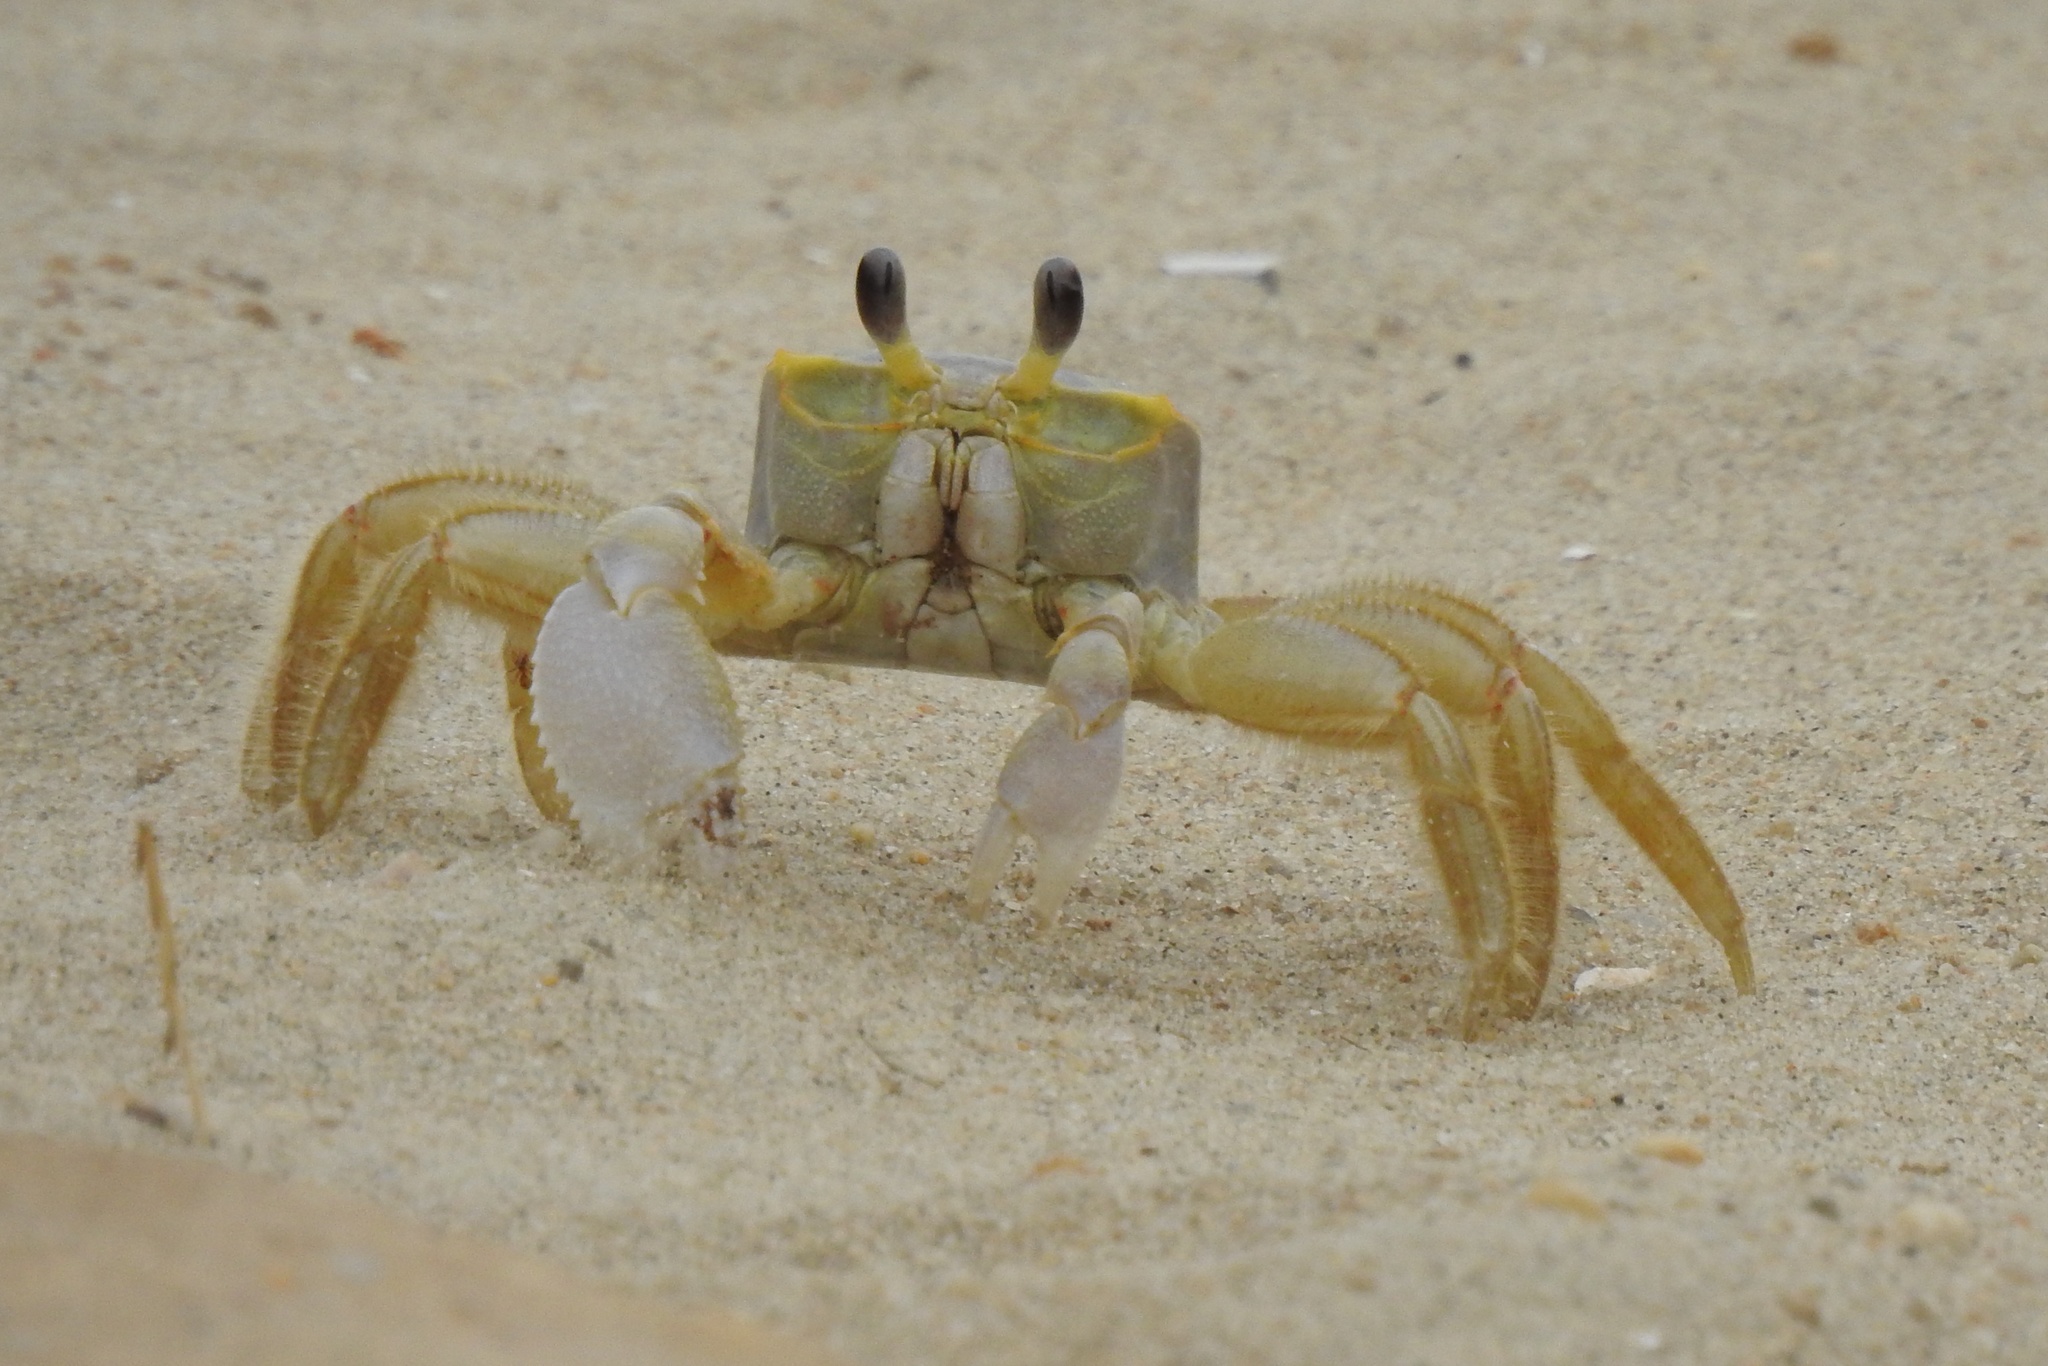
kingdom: Animalia
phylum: Arthropoda
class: Malacostraca
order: Decapoda
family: Ocypodidae
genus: Ocypode
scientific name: Ocypode quadrata
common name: Ghost crab
